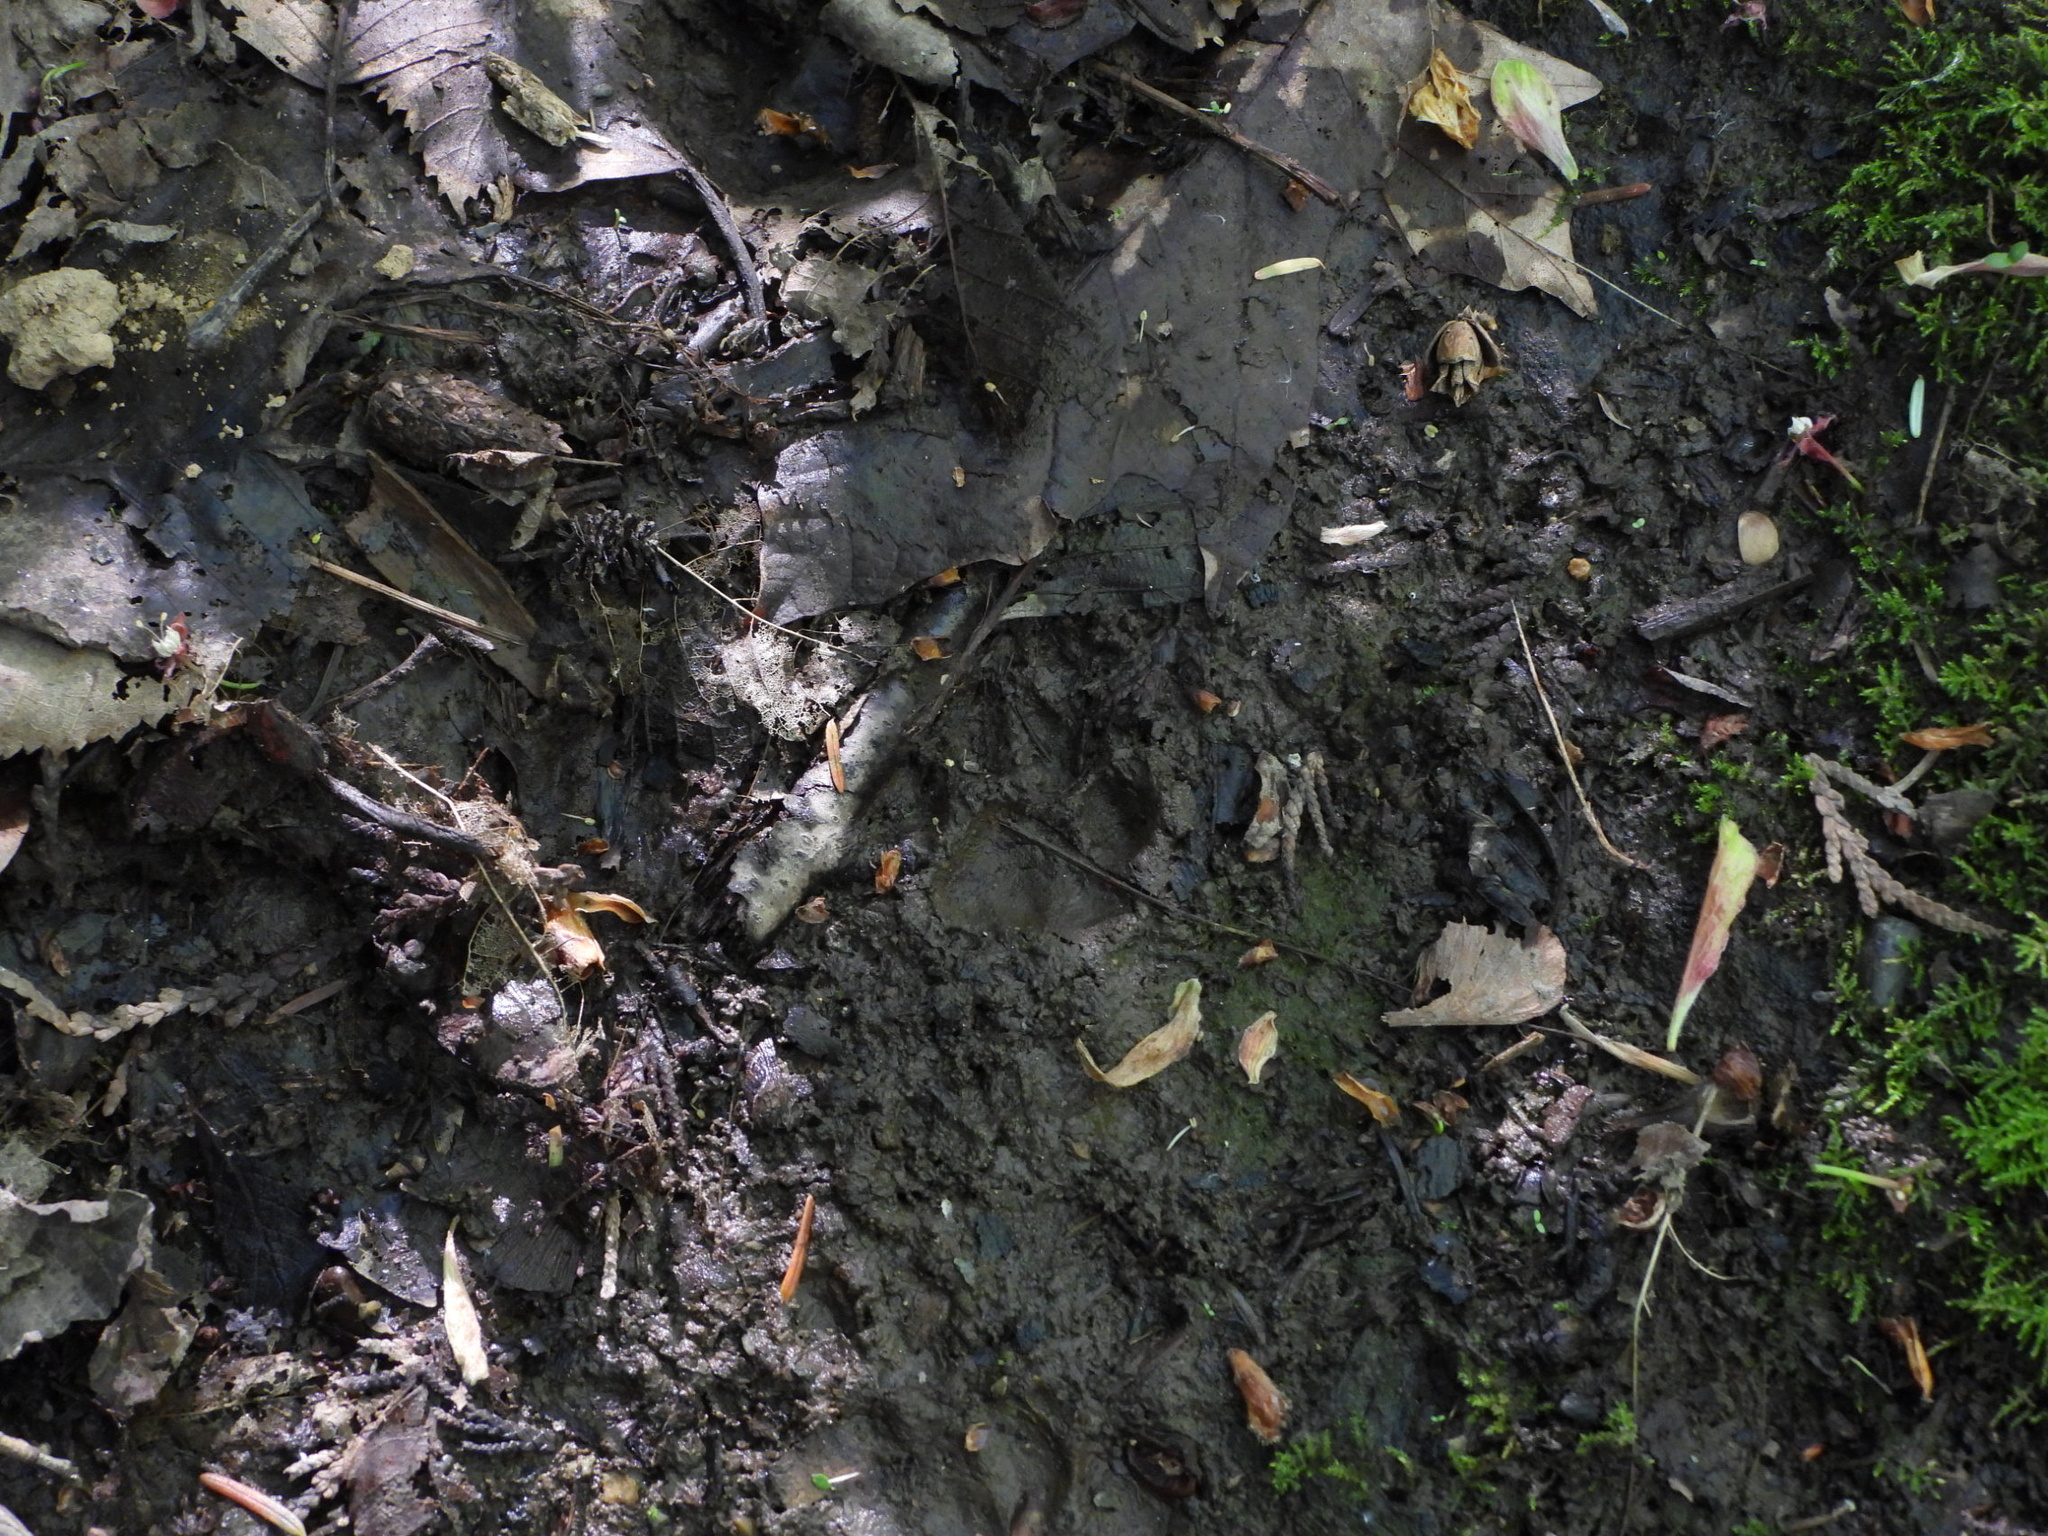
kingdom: Animalia
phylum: Chordata
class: Mammalia
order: Carnivora
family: Felidae
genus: Felis
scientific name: Felis catus
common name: Domestic cat
